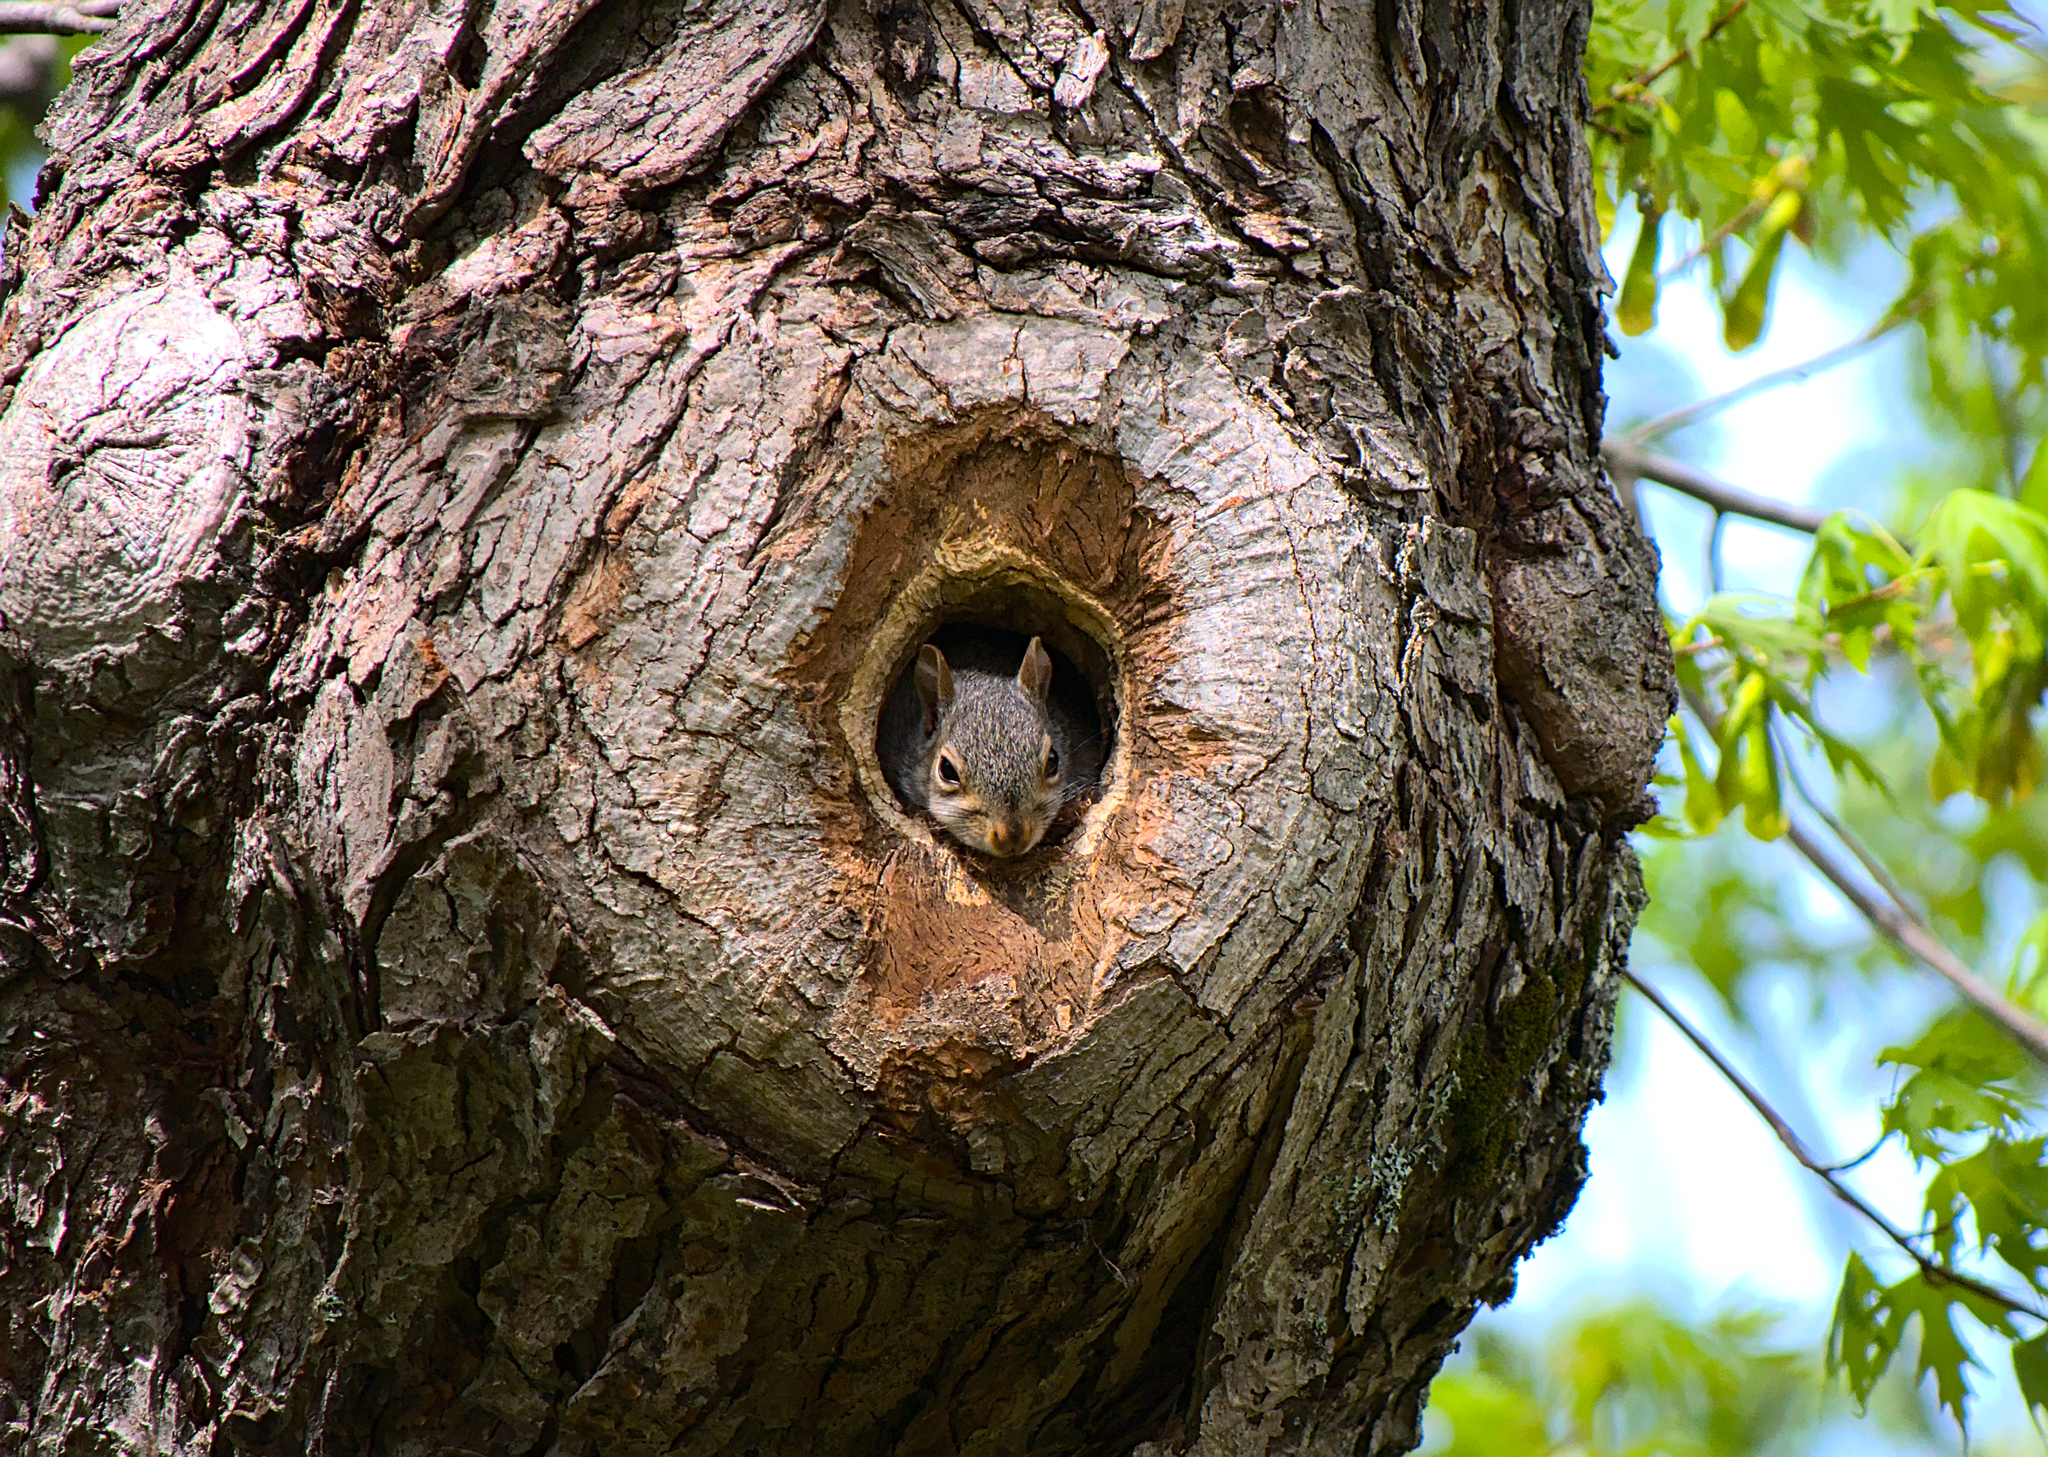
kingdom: Animalia
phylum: Chordata
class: Mammalia
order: Rodentia
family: Sciuridae
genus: Sciurus
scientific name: Sciurus carolinensis
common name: Eastern gray squirrel
